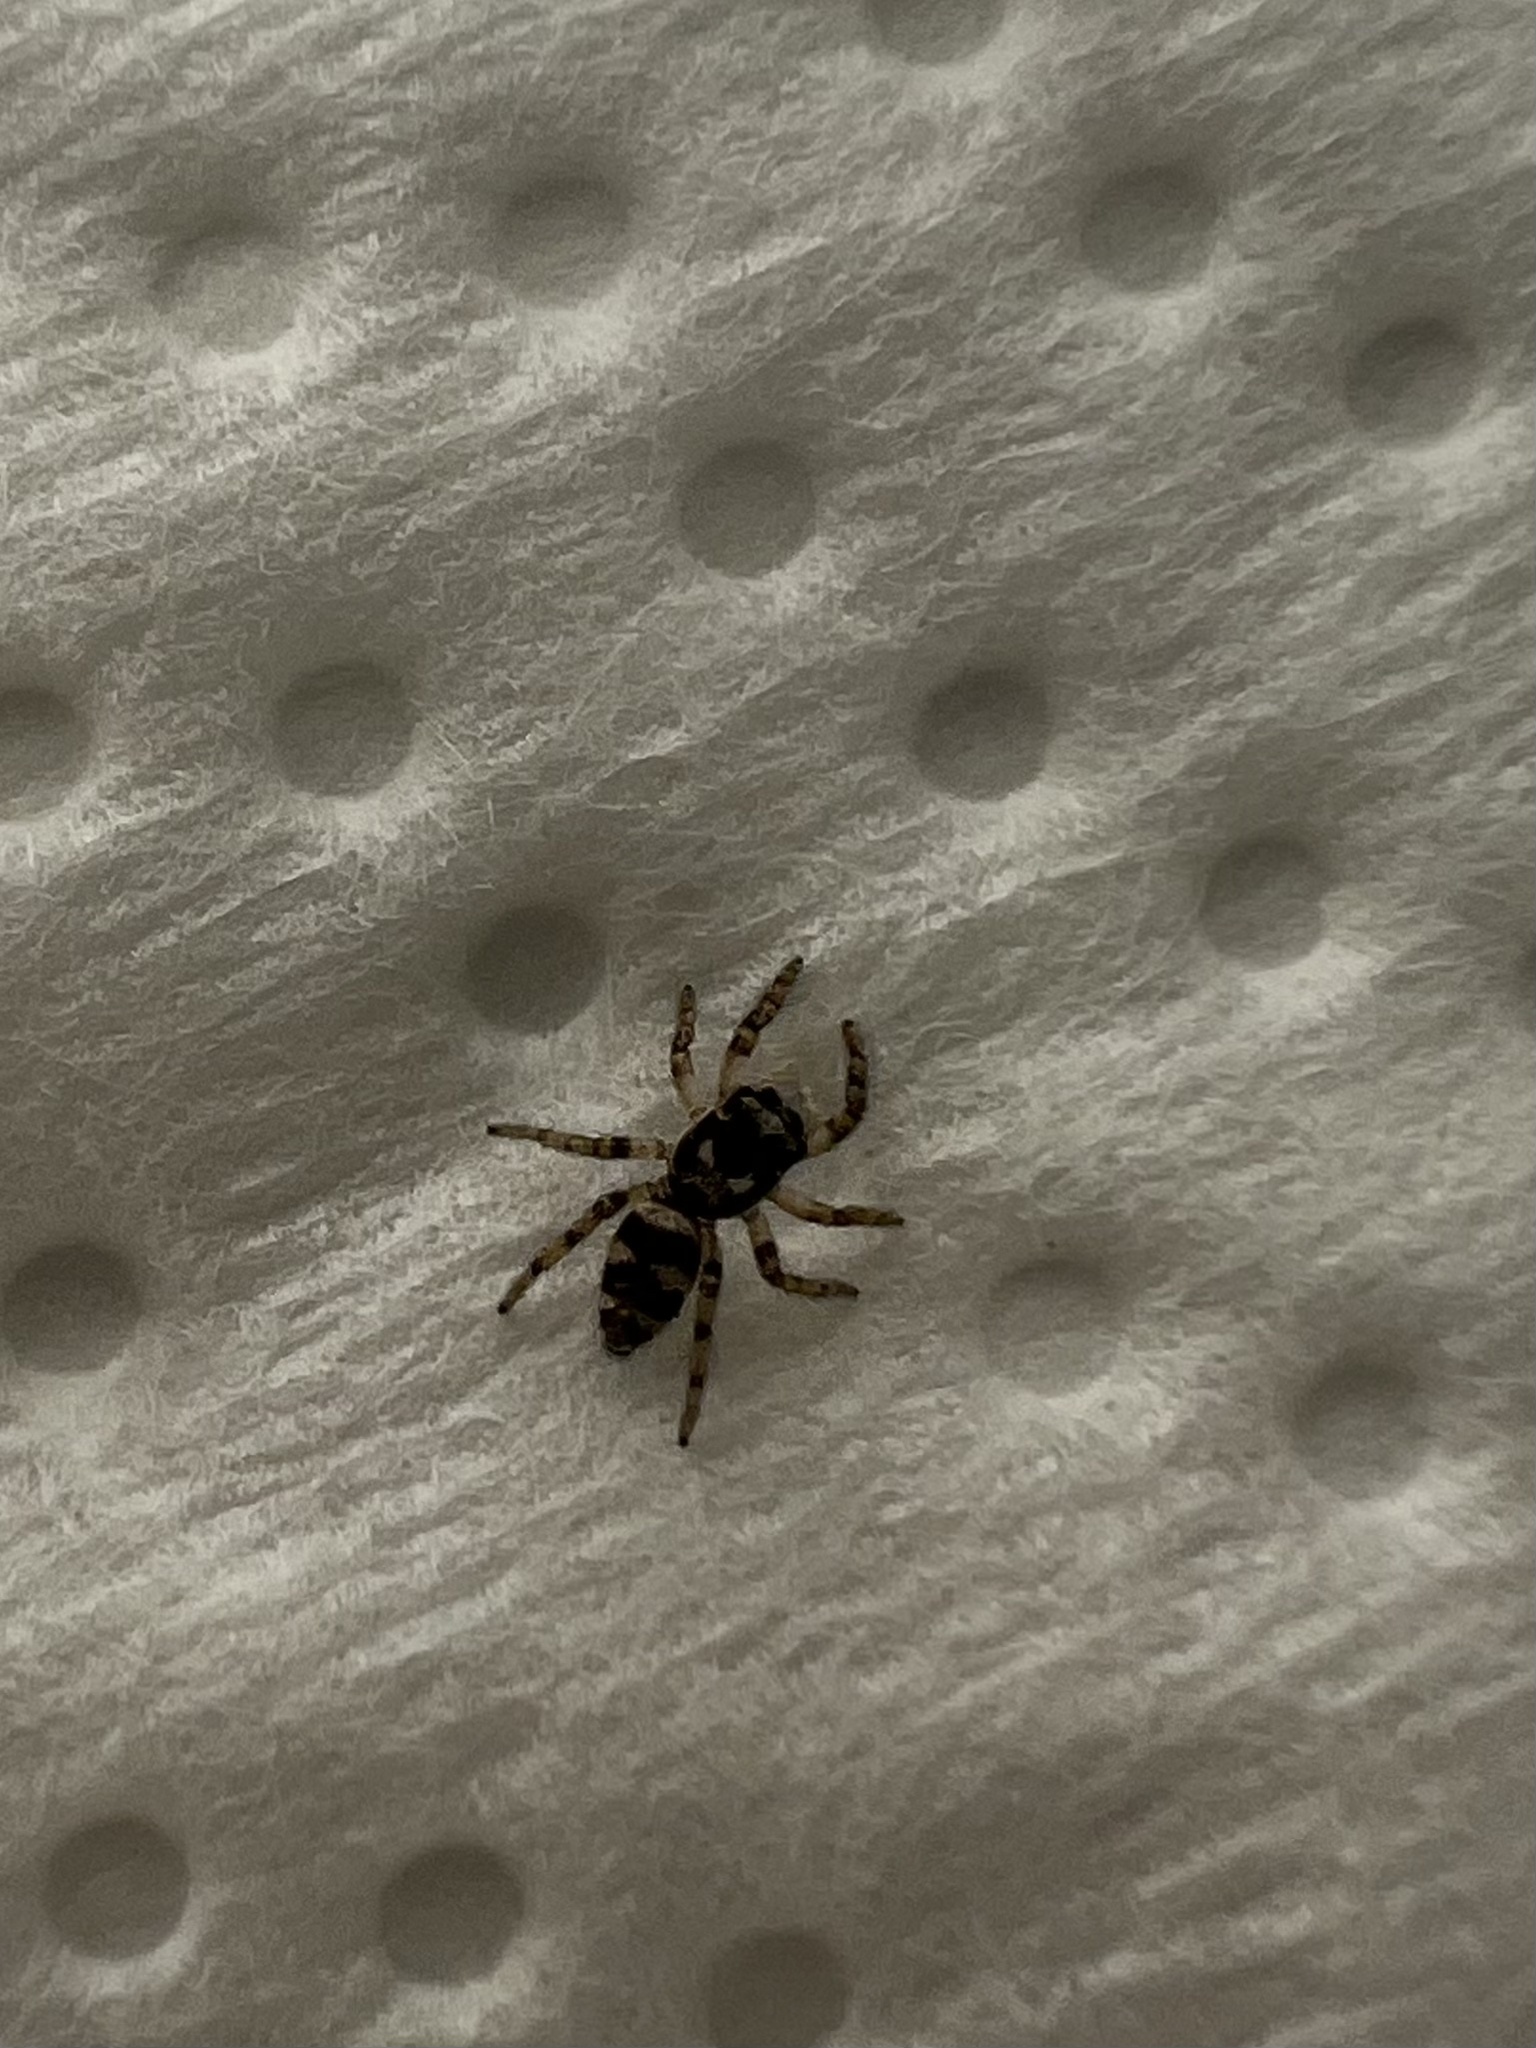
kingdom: Animalia
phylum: Arthropoda
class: Arachnida
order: Araneae
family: Salticidae
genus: Salticus
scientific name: Salticus scenicus
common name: Zebra jumper
